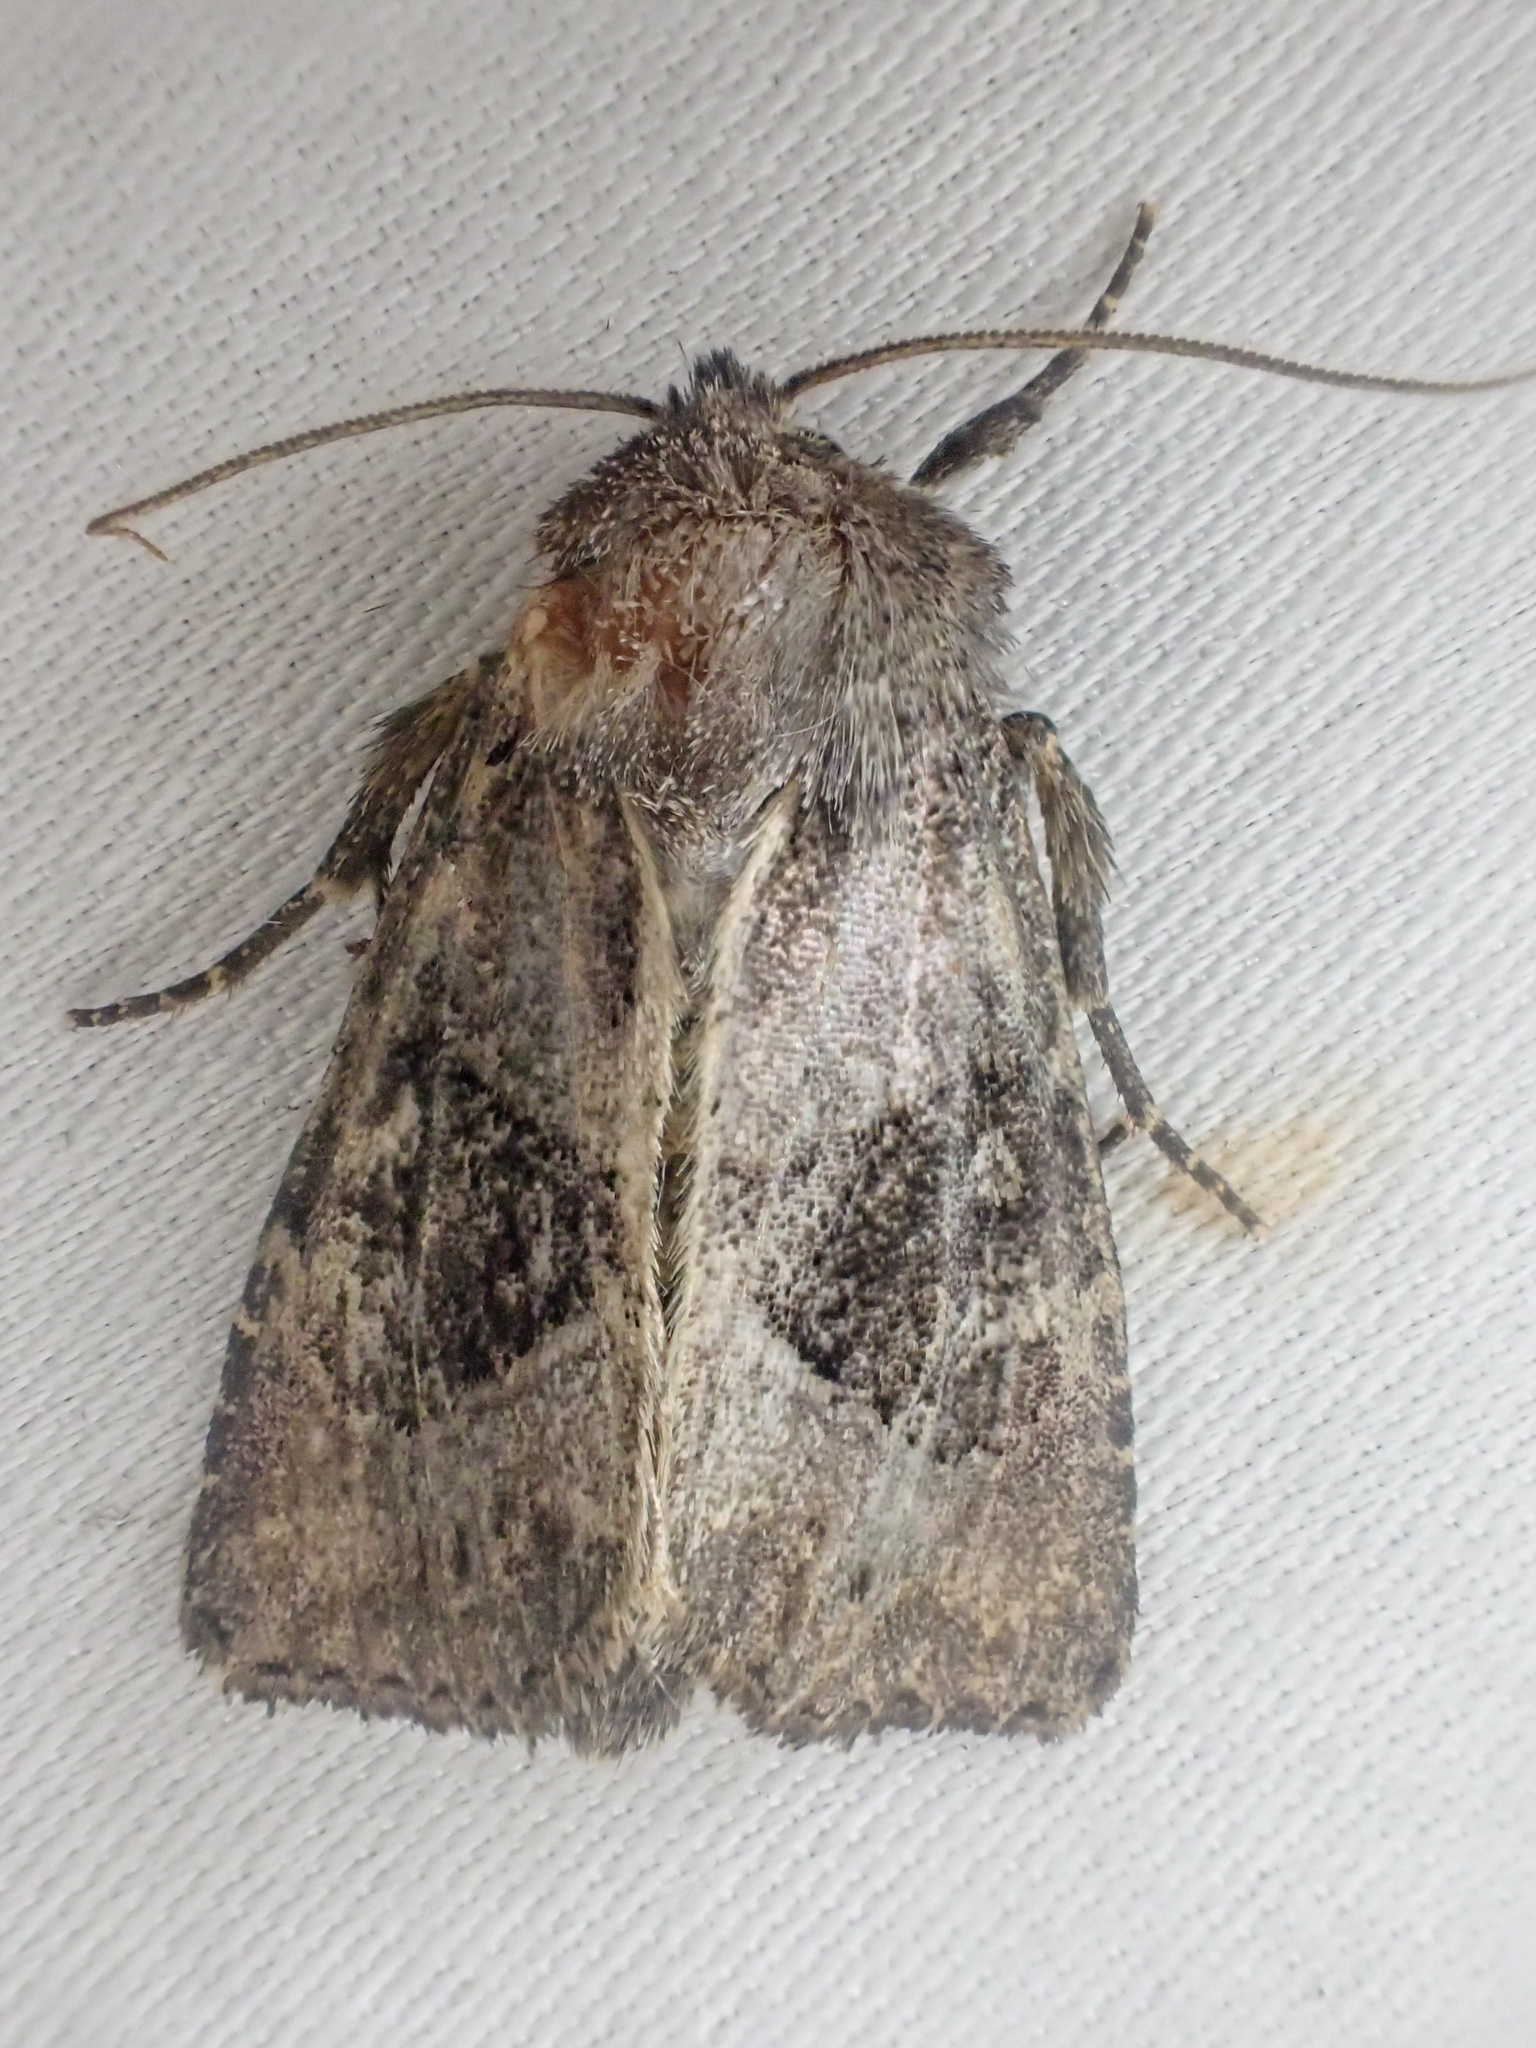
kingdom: Animalia
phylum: Arthropoda
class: Insecta
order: Lepidoptera
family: Noctuidae
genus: Oligia
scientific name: Oligia obtusa
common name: Obtuse sedge borer
